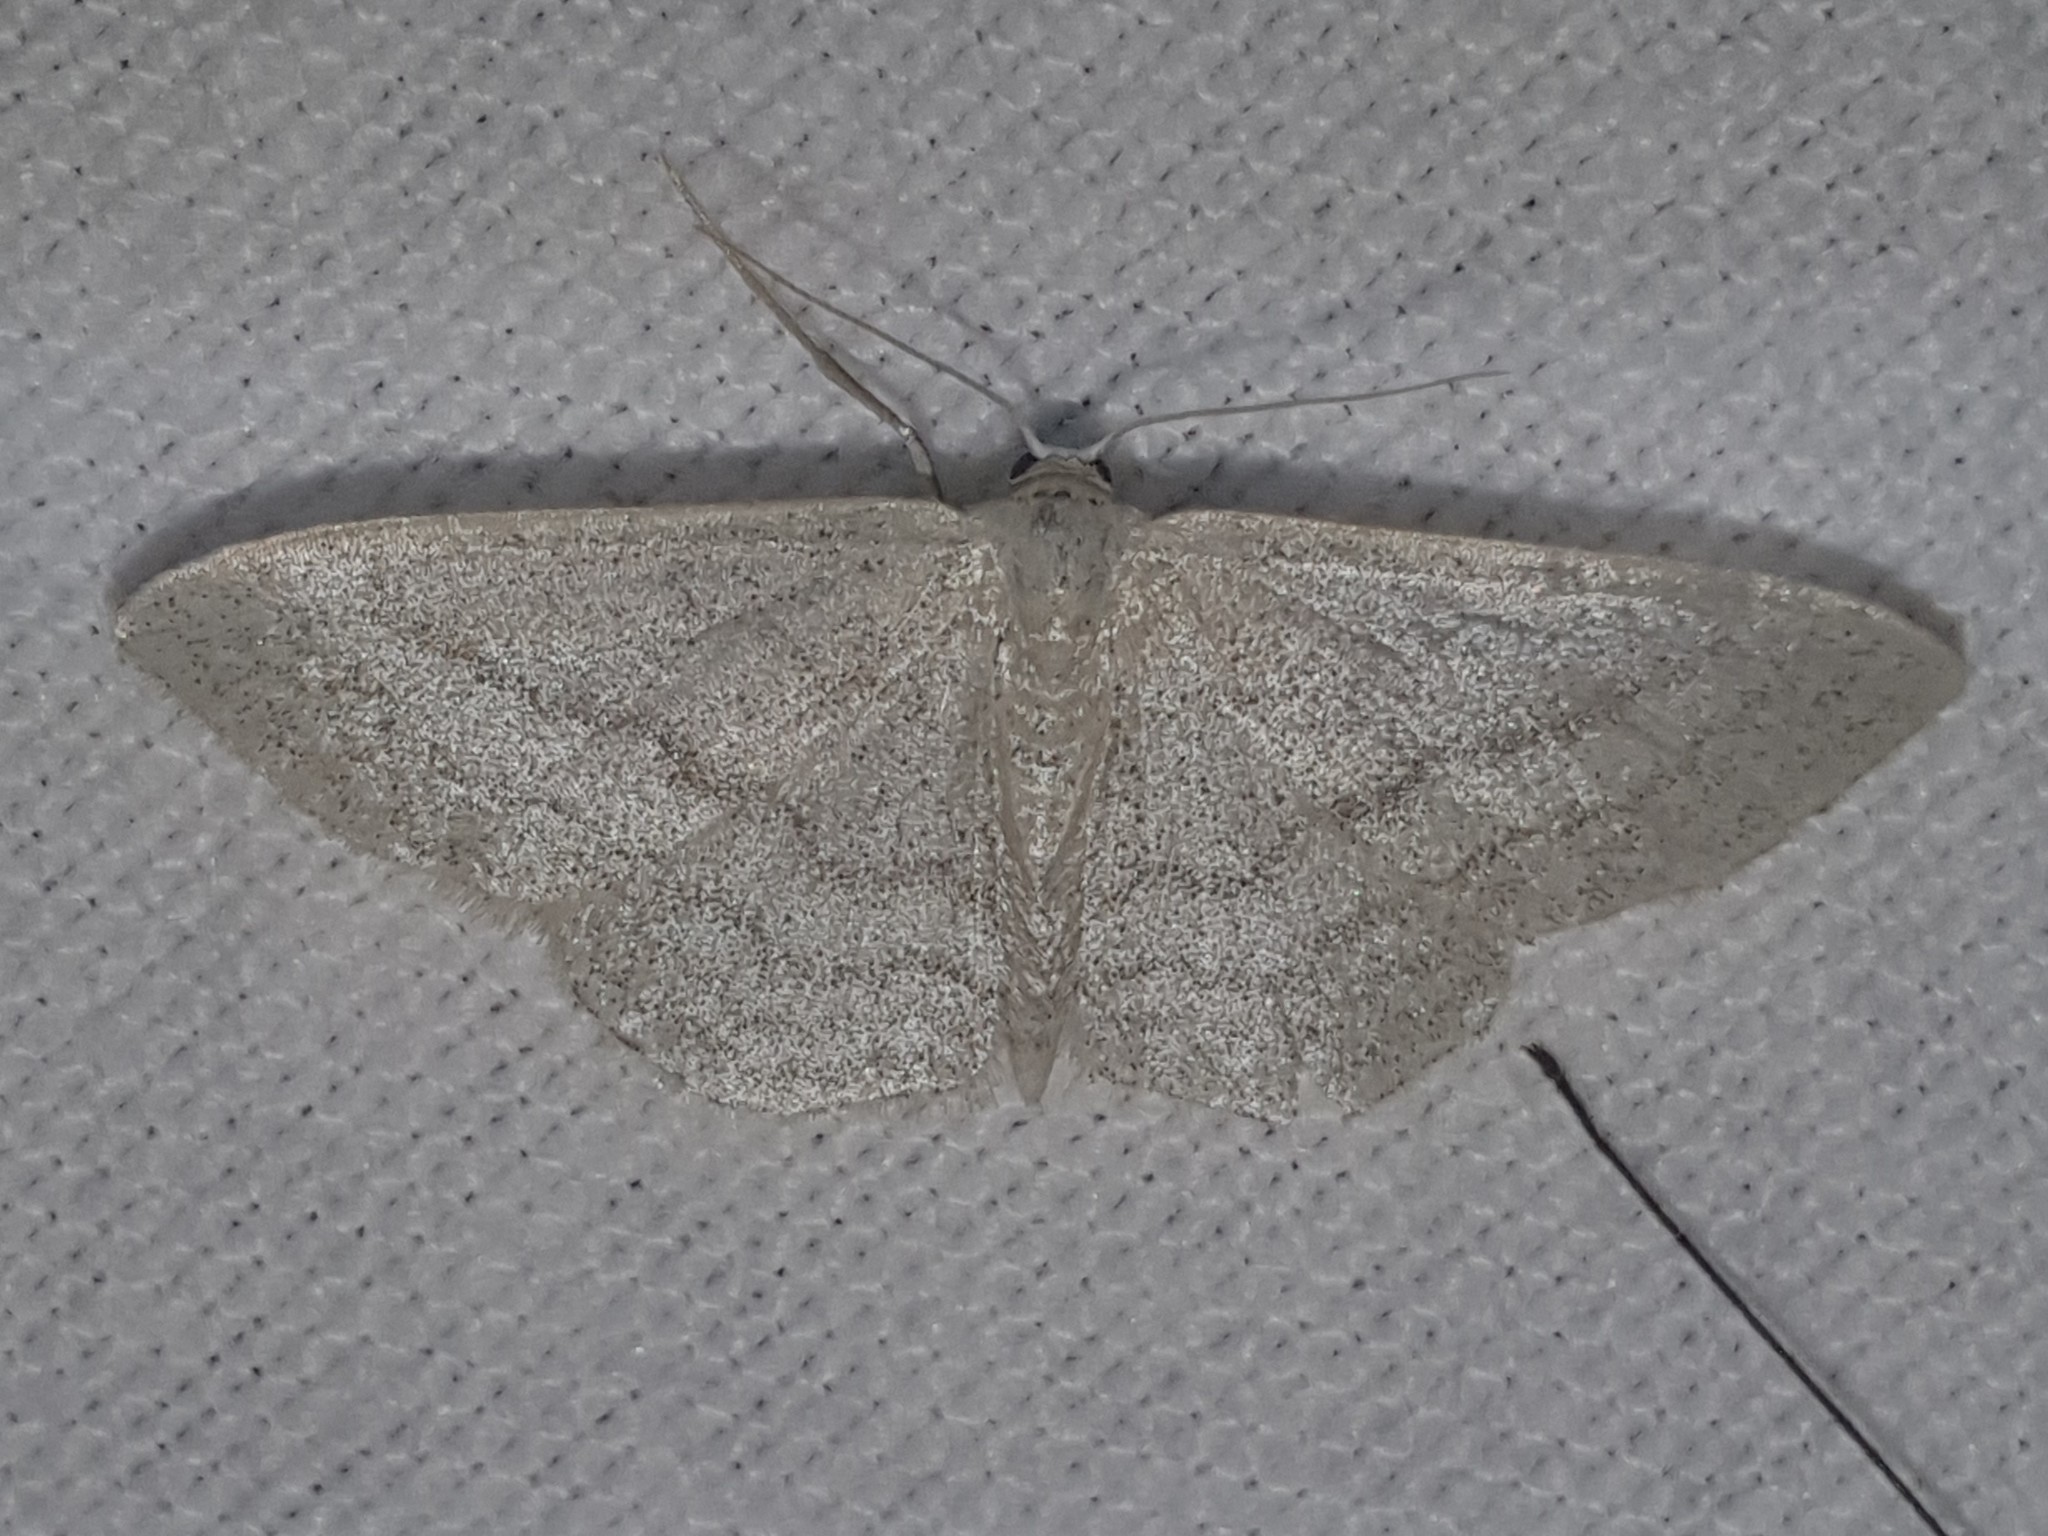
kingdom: Animalia
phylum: Arthropoda
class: Insecta
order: Lepidoptera
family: Geometridae
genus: Idaea
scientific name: Idaea subsericeata
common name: Satin wave
